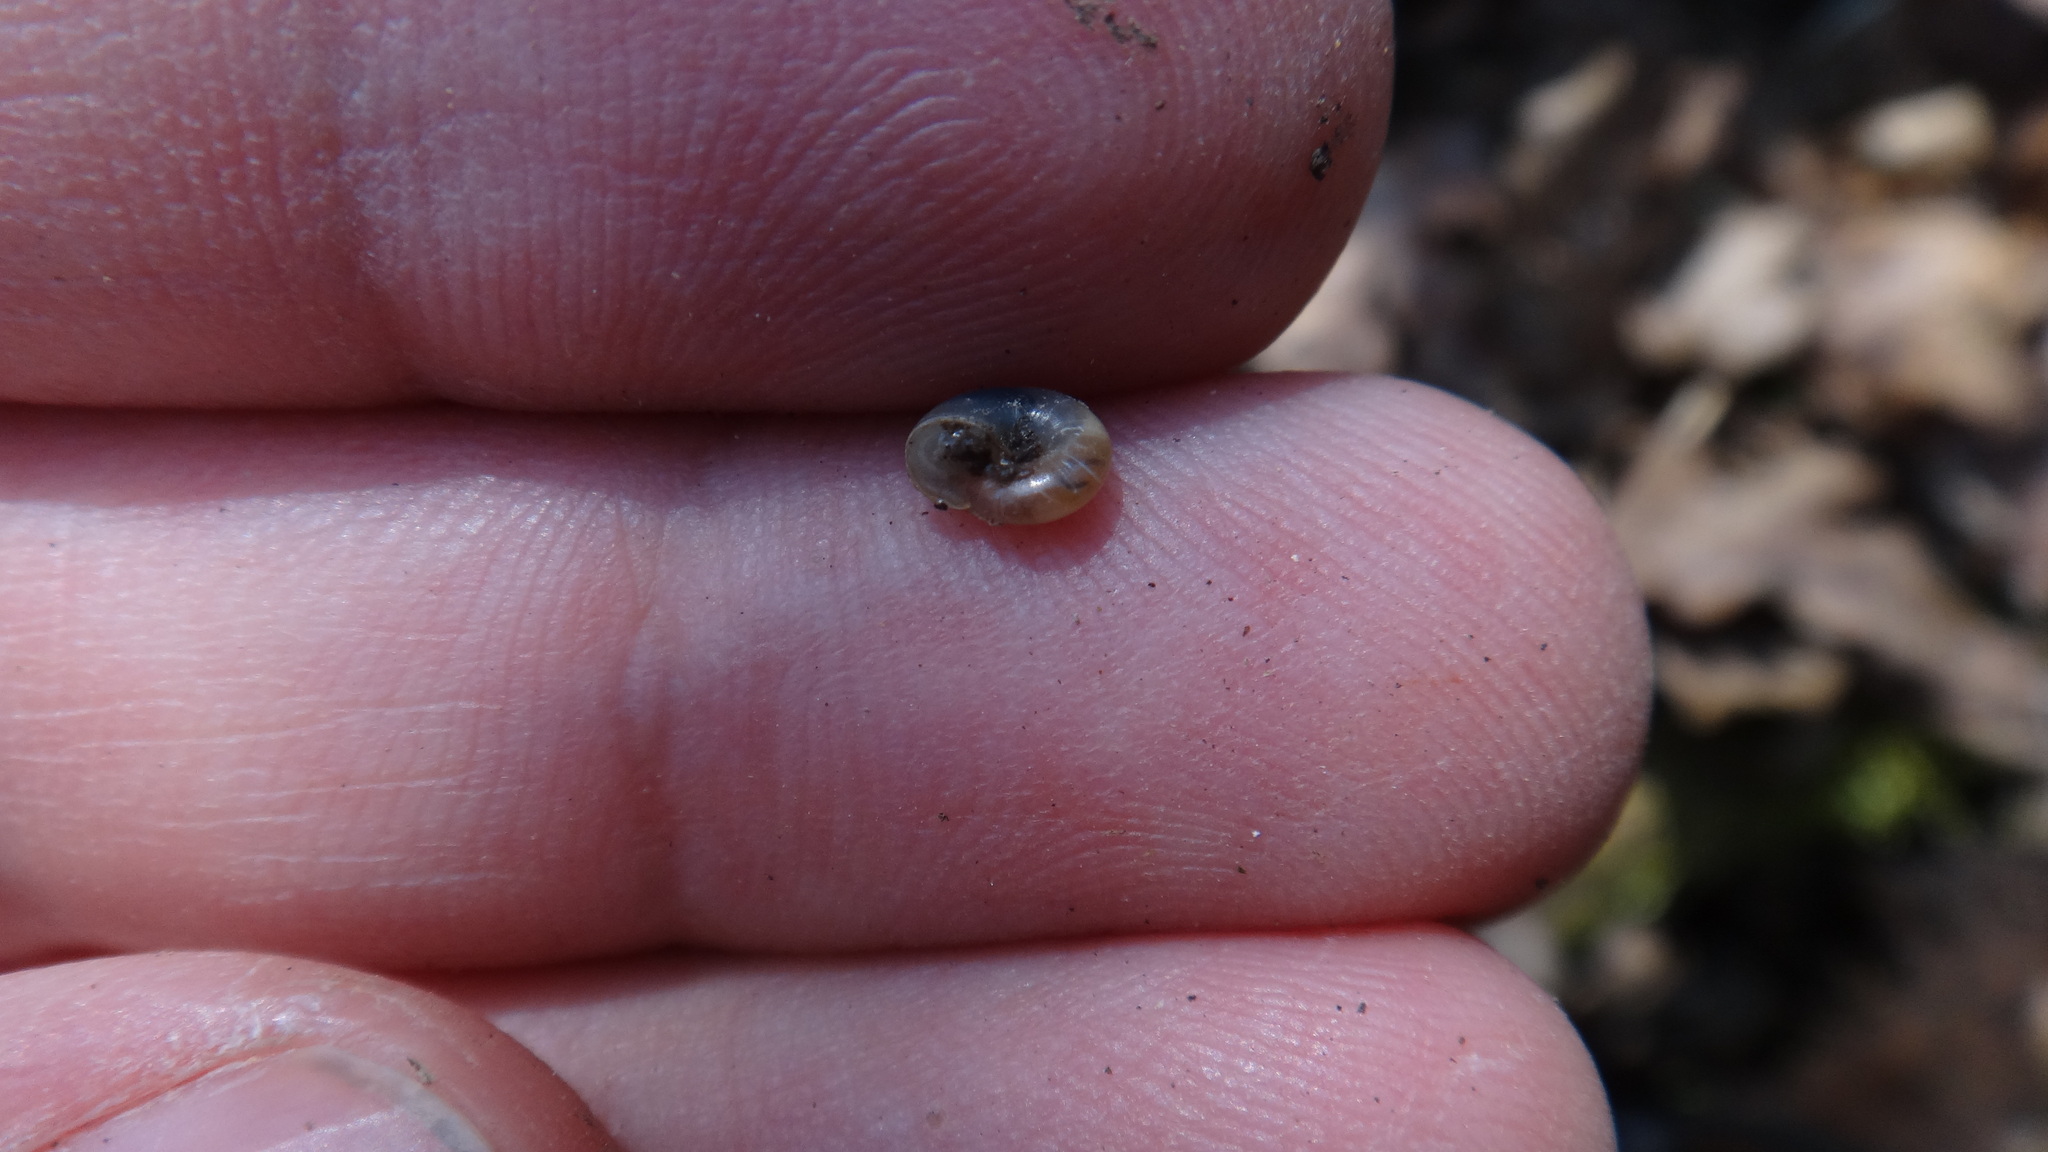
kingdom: Animalia
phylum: Mollusca
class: Gastropoda
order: Stylommatophora
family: Gastrodontidae
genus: Aegopinella
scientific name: Aegopinella minor
